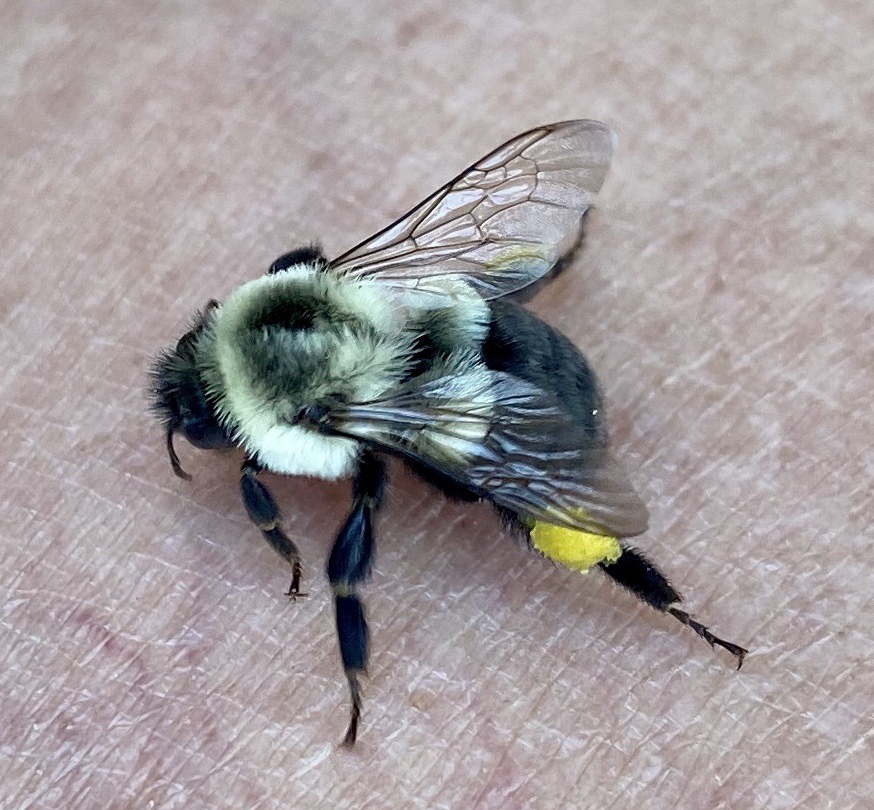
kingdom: Animalia
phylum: Arthropoda
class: Insecta
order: Hymenoptera
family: Apidae
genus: Bombus
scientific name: Bombus impatiens
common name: Common eastern bumble bee
